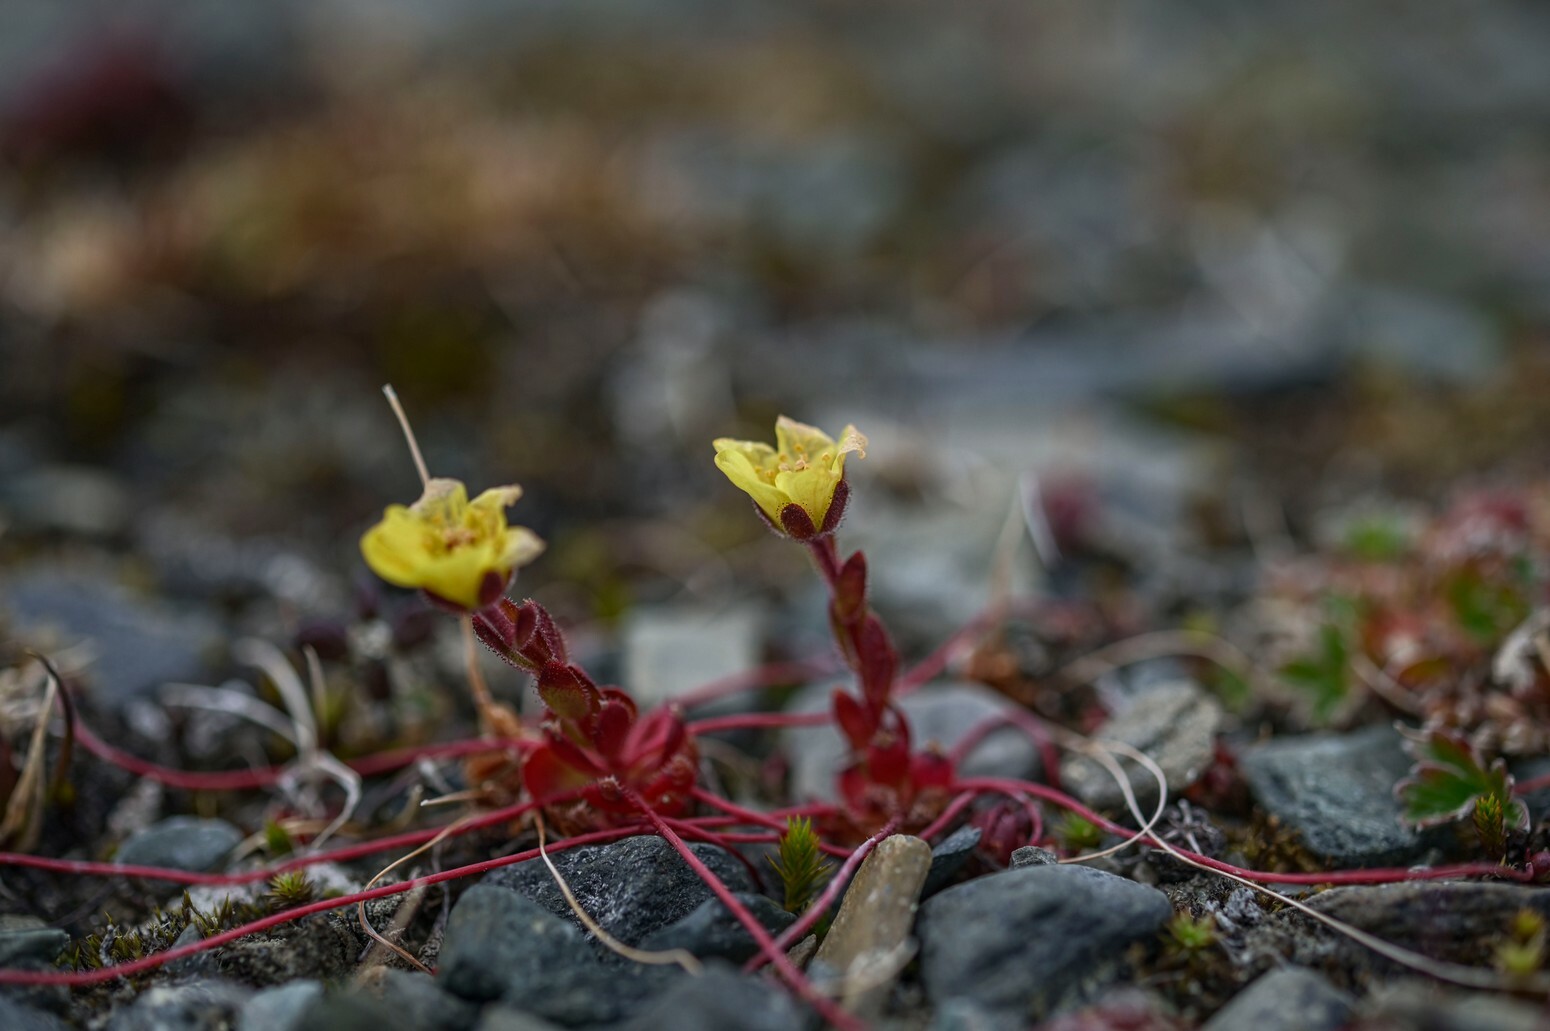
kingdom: Plantae
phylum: Tracheophyta
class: Magnoliopsida
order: Saxifragales
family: Saxifragaceae
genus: Saxifraga
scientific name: Saxifraga platysepala
